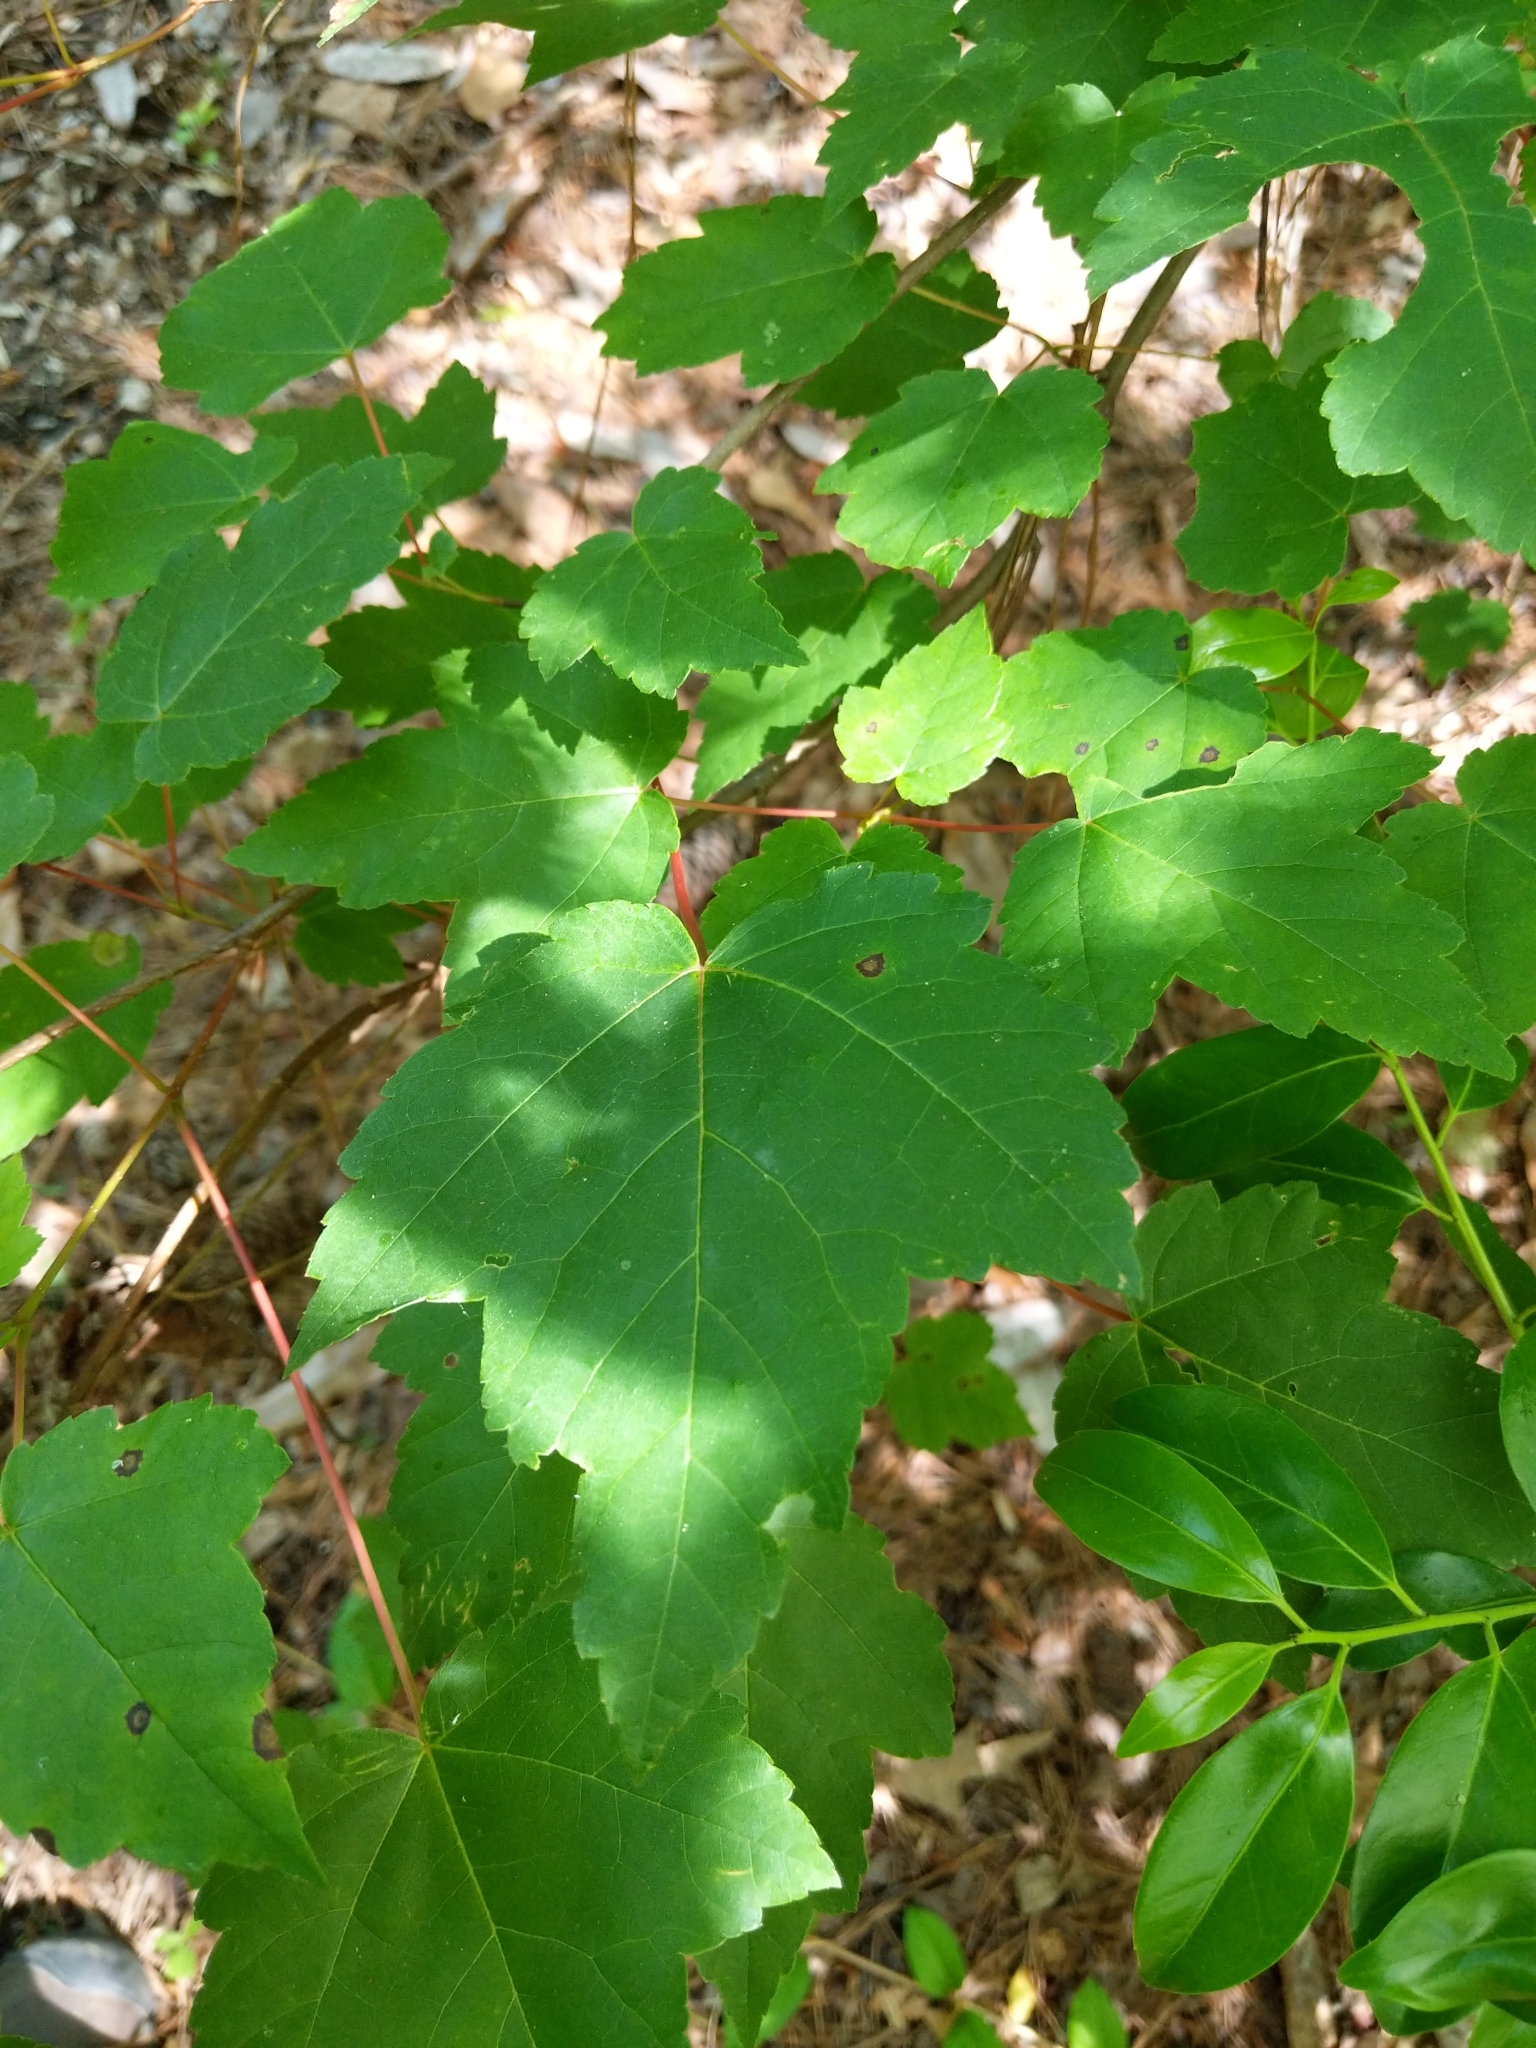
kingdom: Plantae
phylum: Tracheophyta
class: Magnoliopsida
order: Sapindales
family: Sapindaceae
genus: Acer
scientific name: Acer rubrum
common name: Red maple
